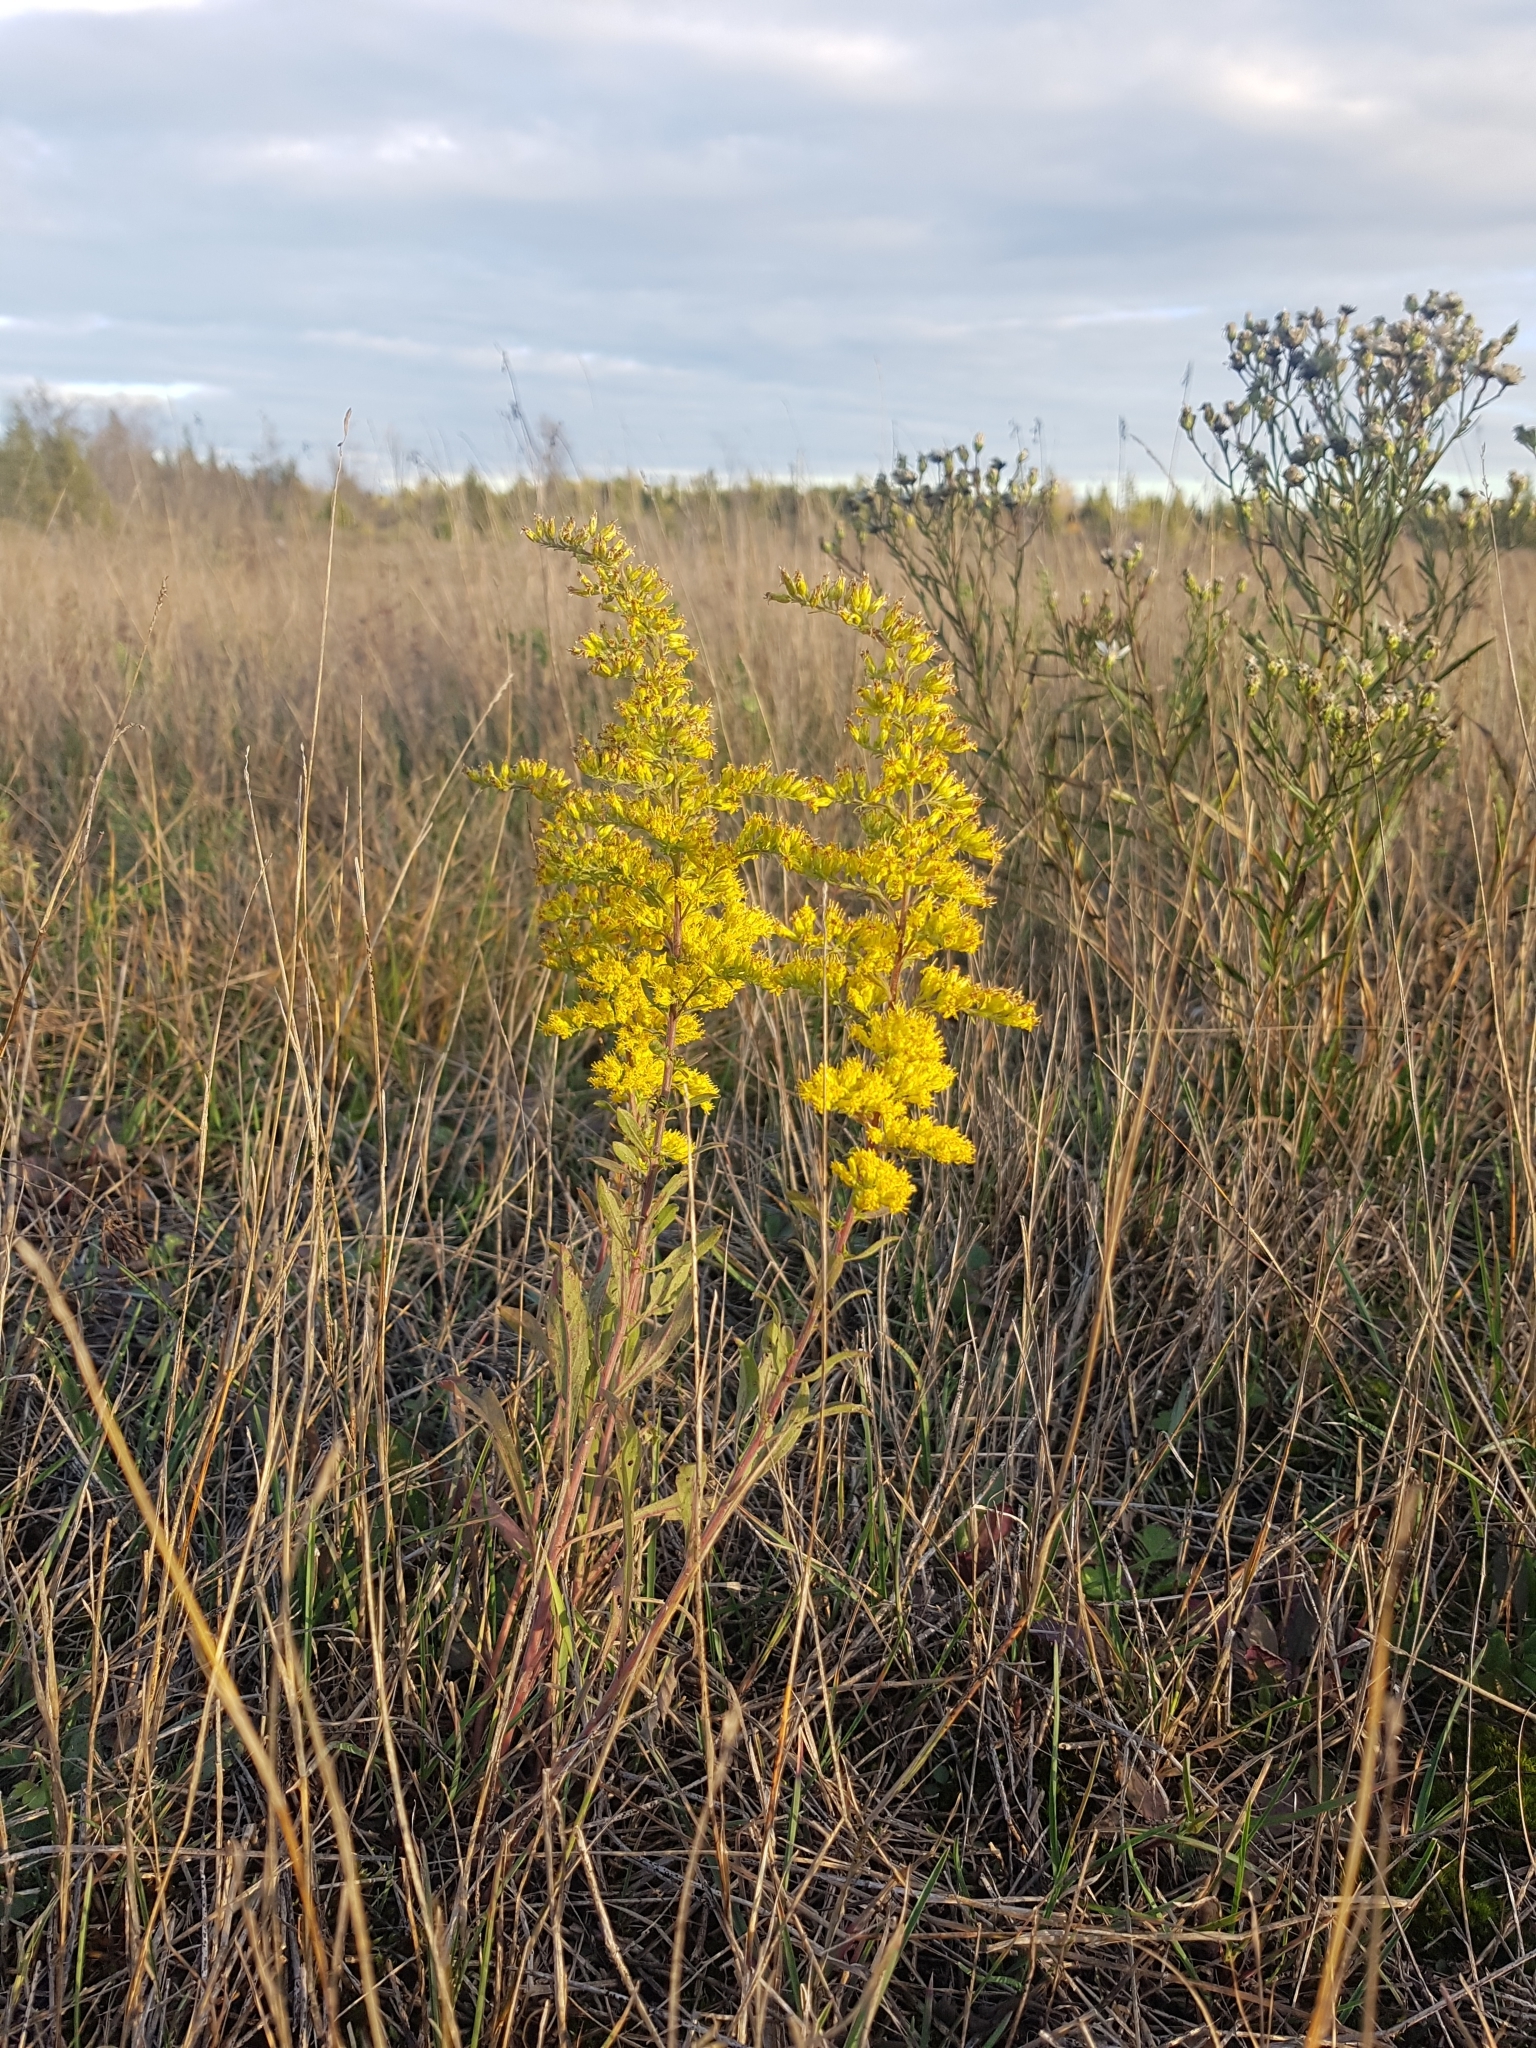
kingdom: Plantae
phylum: Tracheophyta
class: Magnoliopsida
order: Asterales
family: Asteraceae
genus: Solidago
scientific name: Solidago nemoralis
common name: Grey goldenrod
